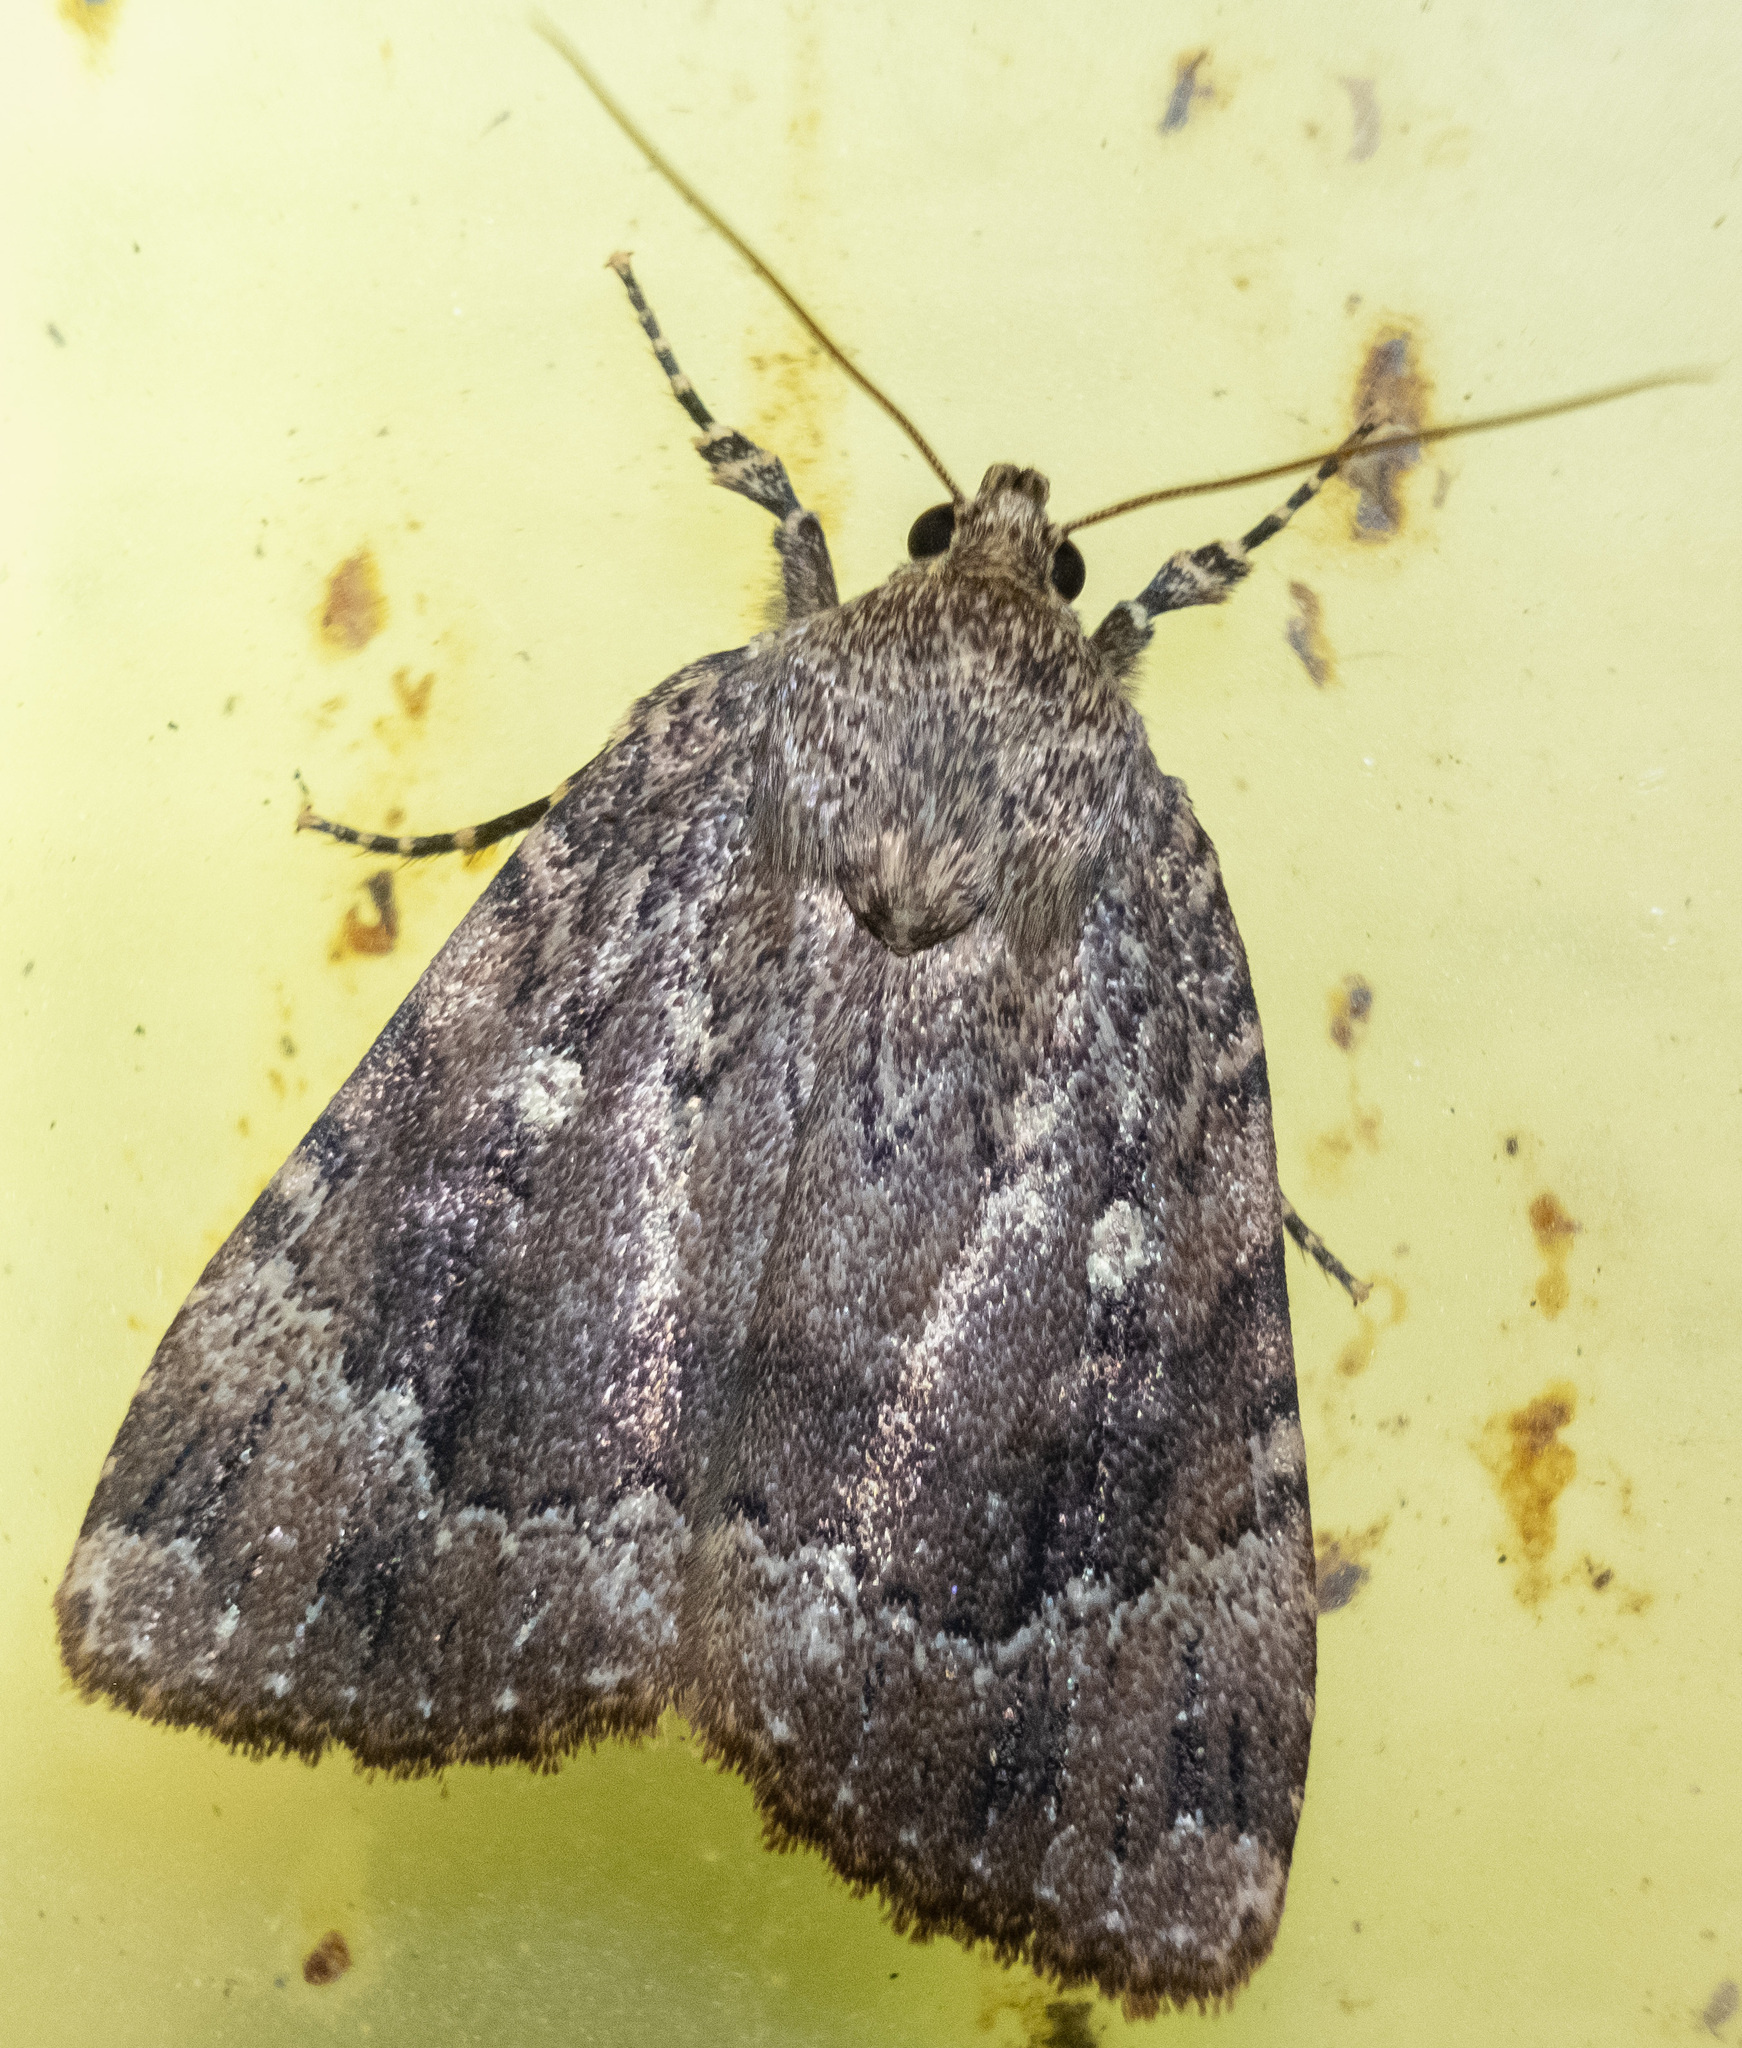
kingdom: Animalia
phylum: Arthropoda
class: Insecta
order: Lepidoptera
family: Noctuidae
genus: Amphipyra
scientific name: Amphipyra pyramidoides
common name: American copper underwing
